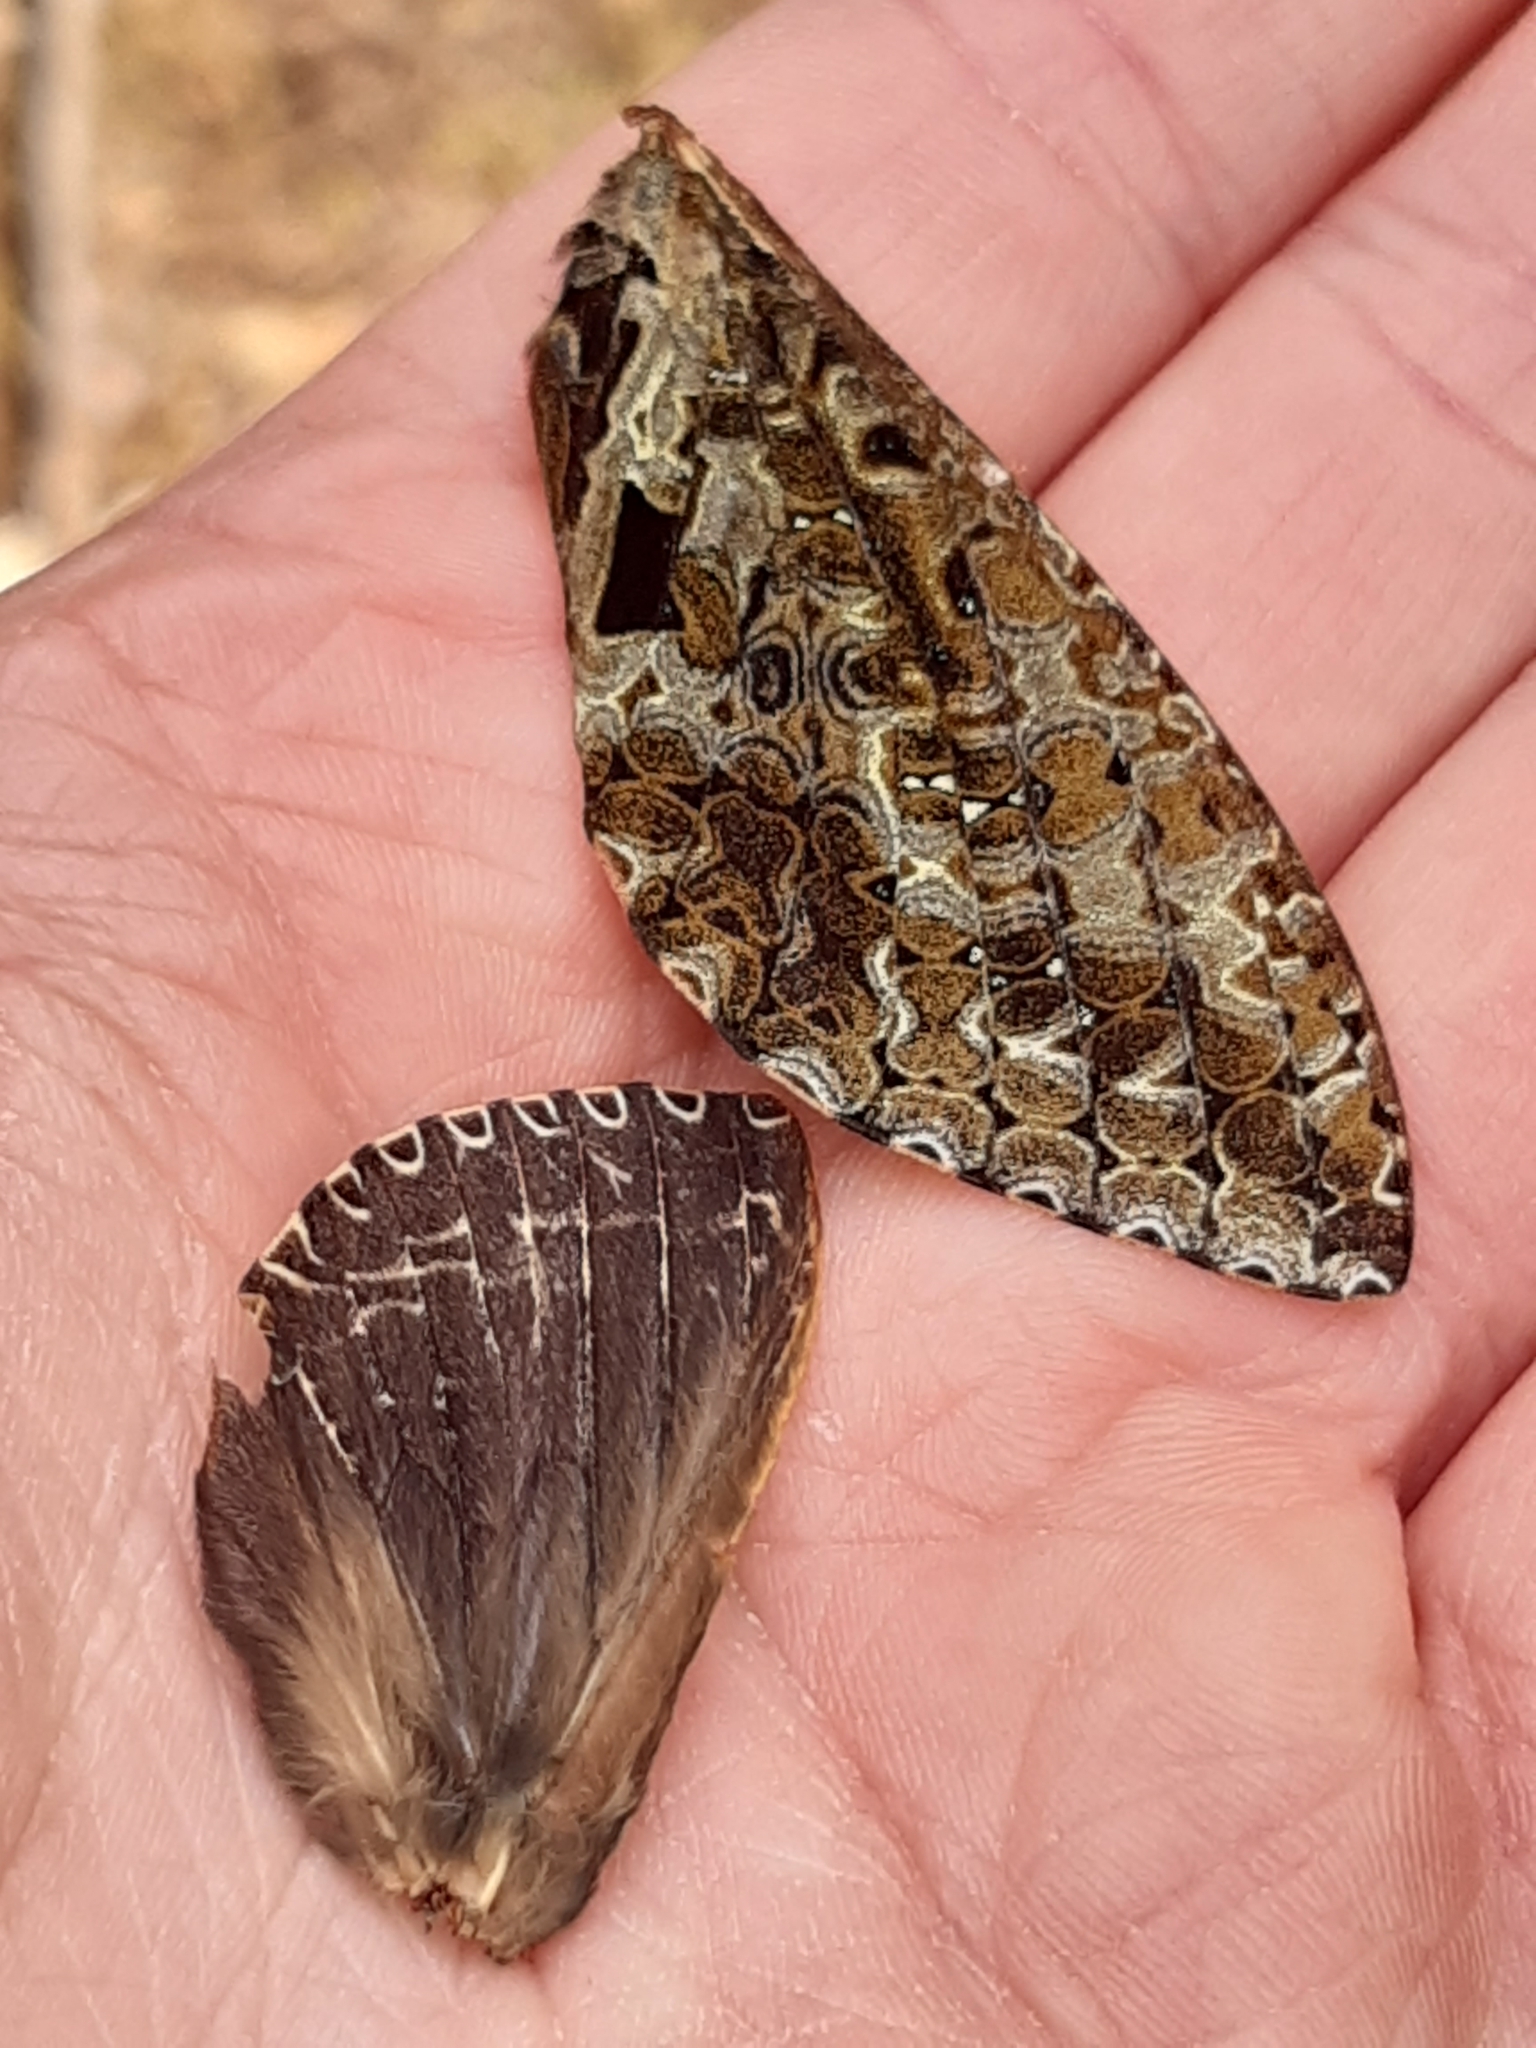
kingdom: Animalia
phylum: Arthropoda
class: Insecta
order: Lepidoptera
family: Hepialidae
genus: Dumbletonius
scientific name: Dumbletonius characterifer
